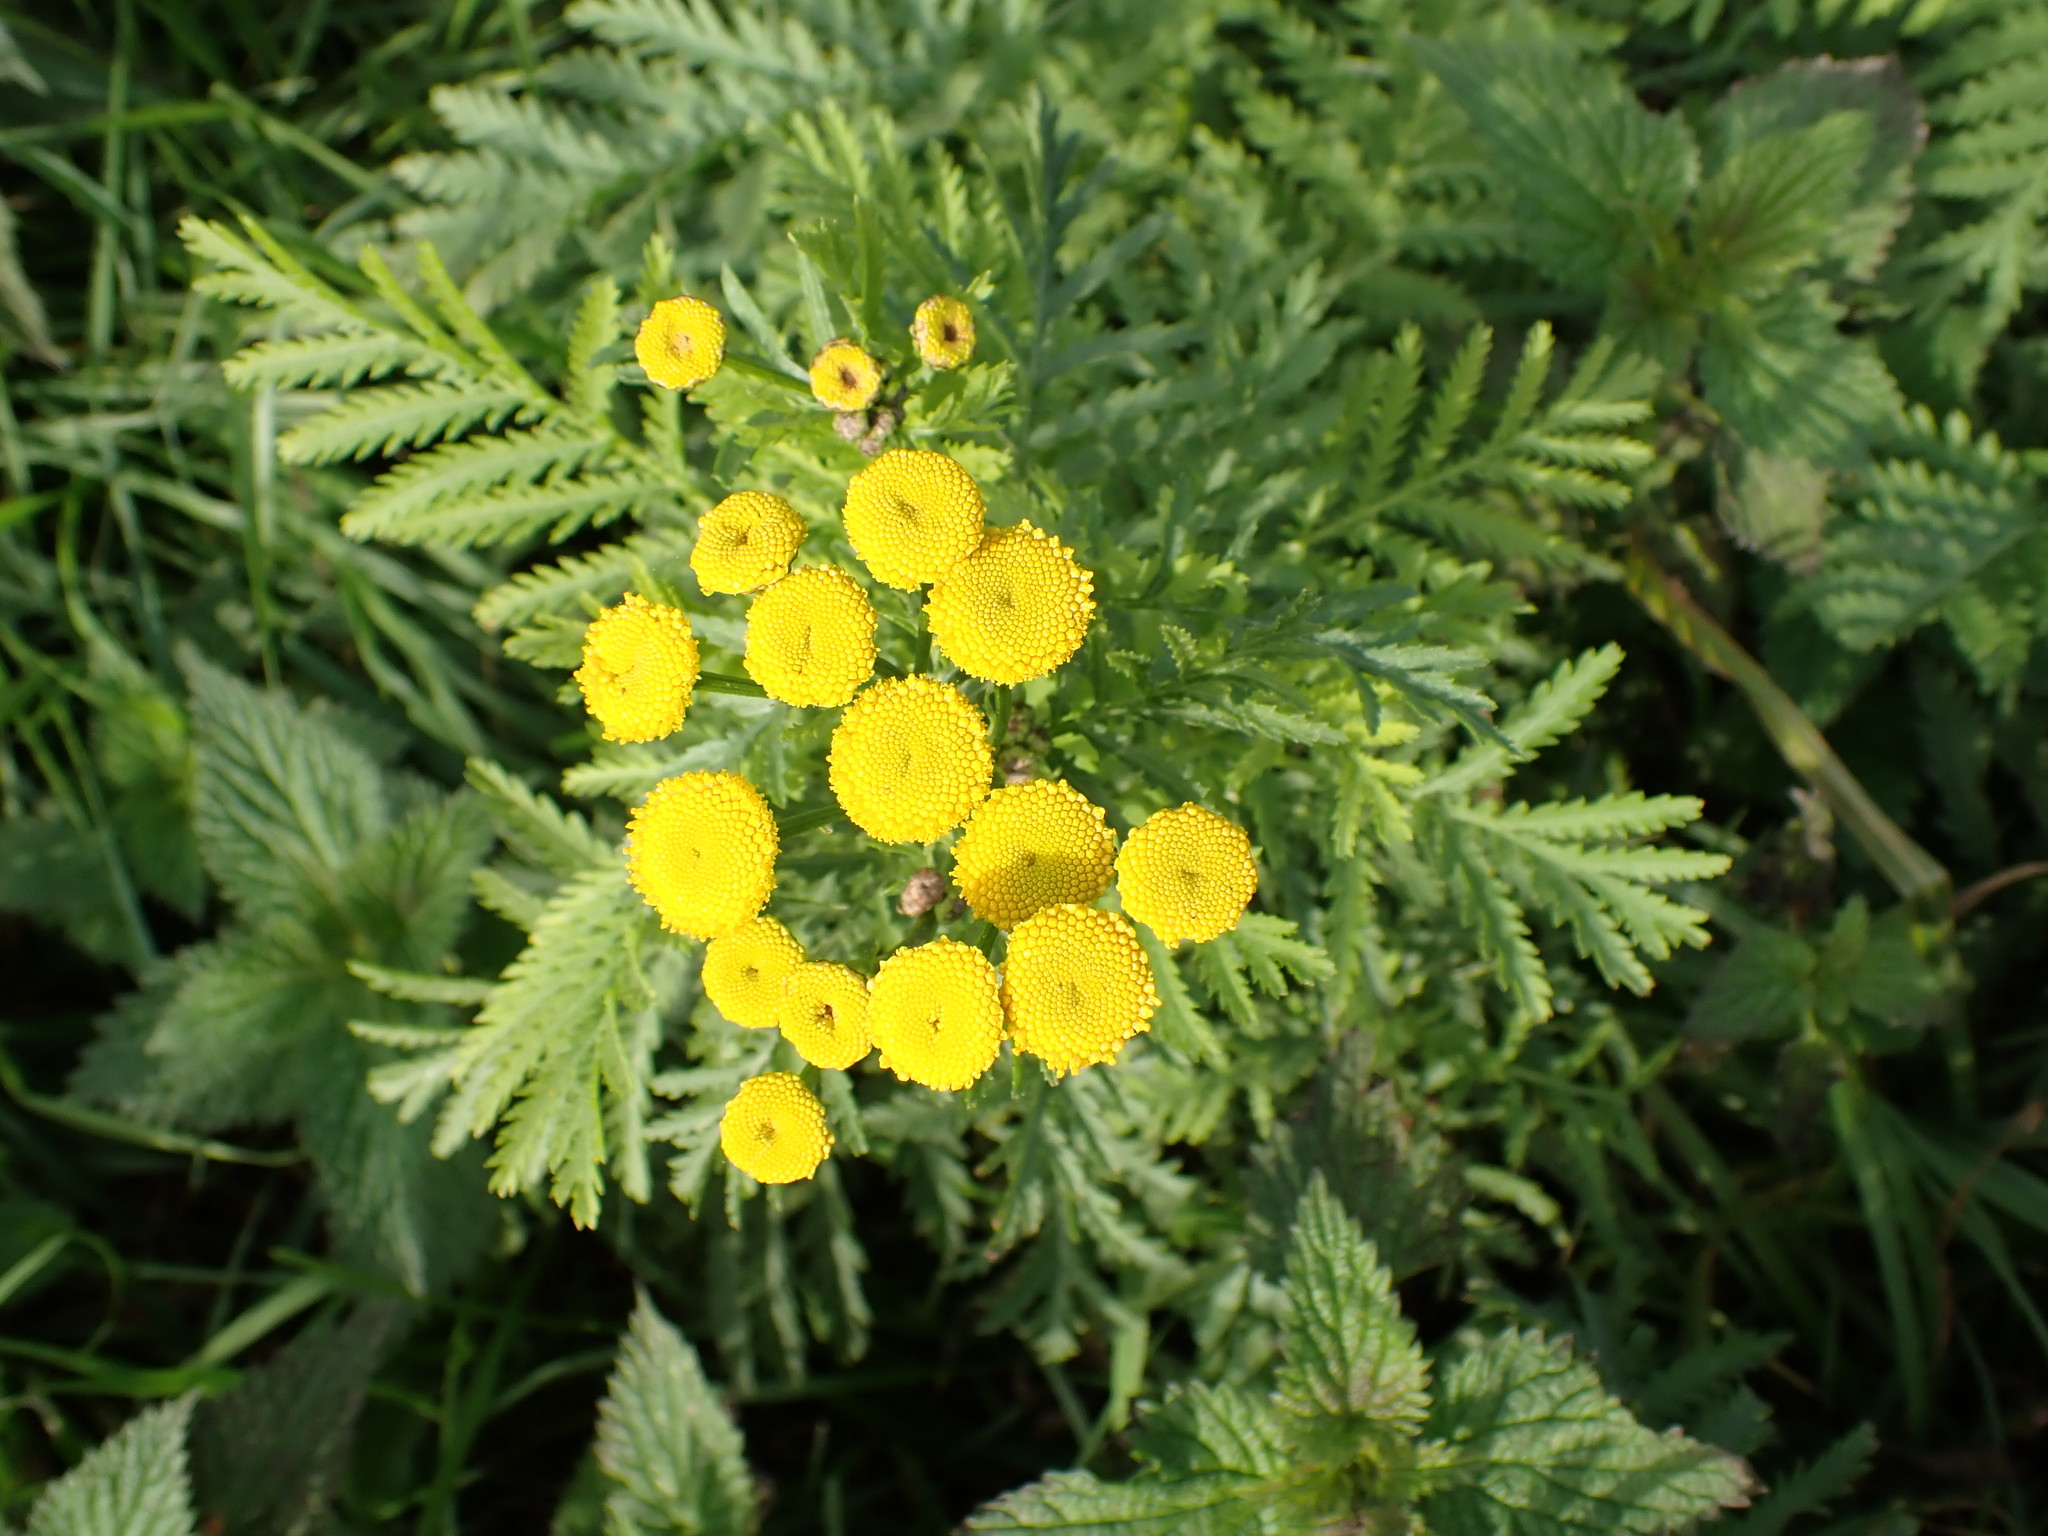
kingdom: Plantae
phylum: Tracheophyta
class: Magnoliopsida
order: Asterales
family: Asteraceae
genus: Tanacetum
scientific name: Tanacetum vulgare
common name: Common tansy
